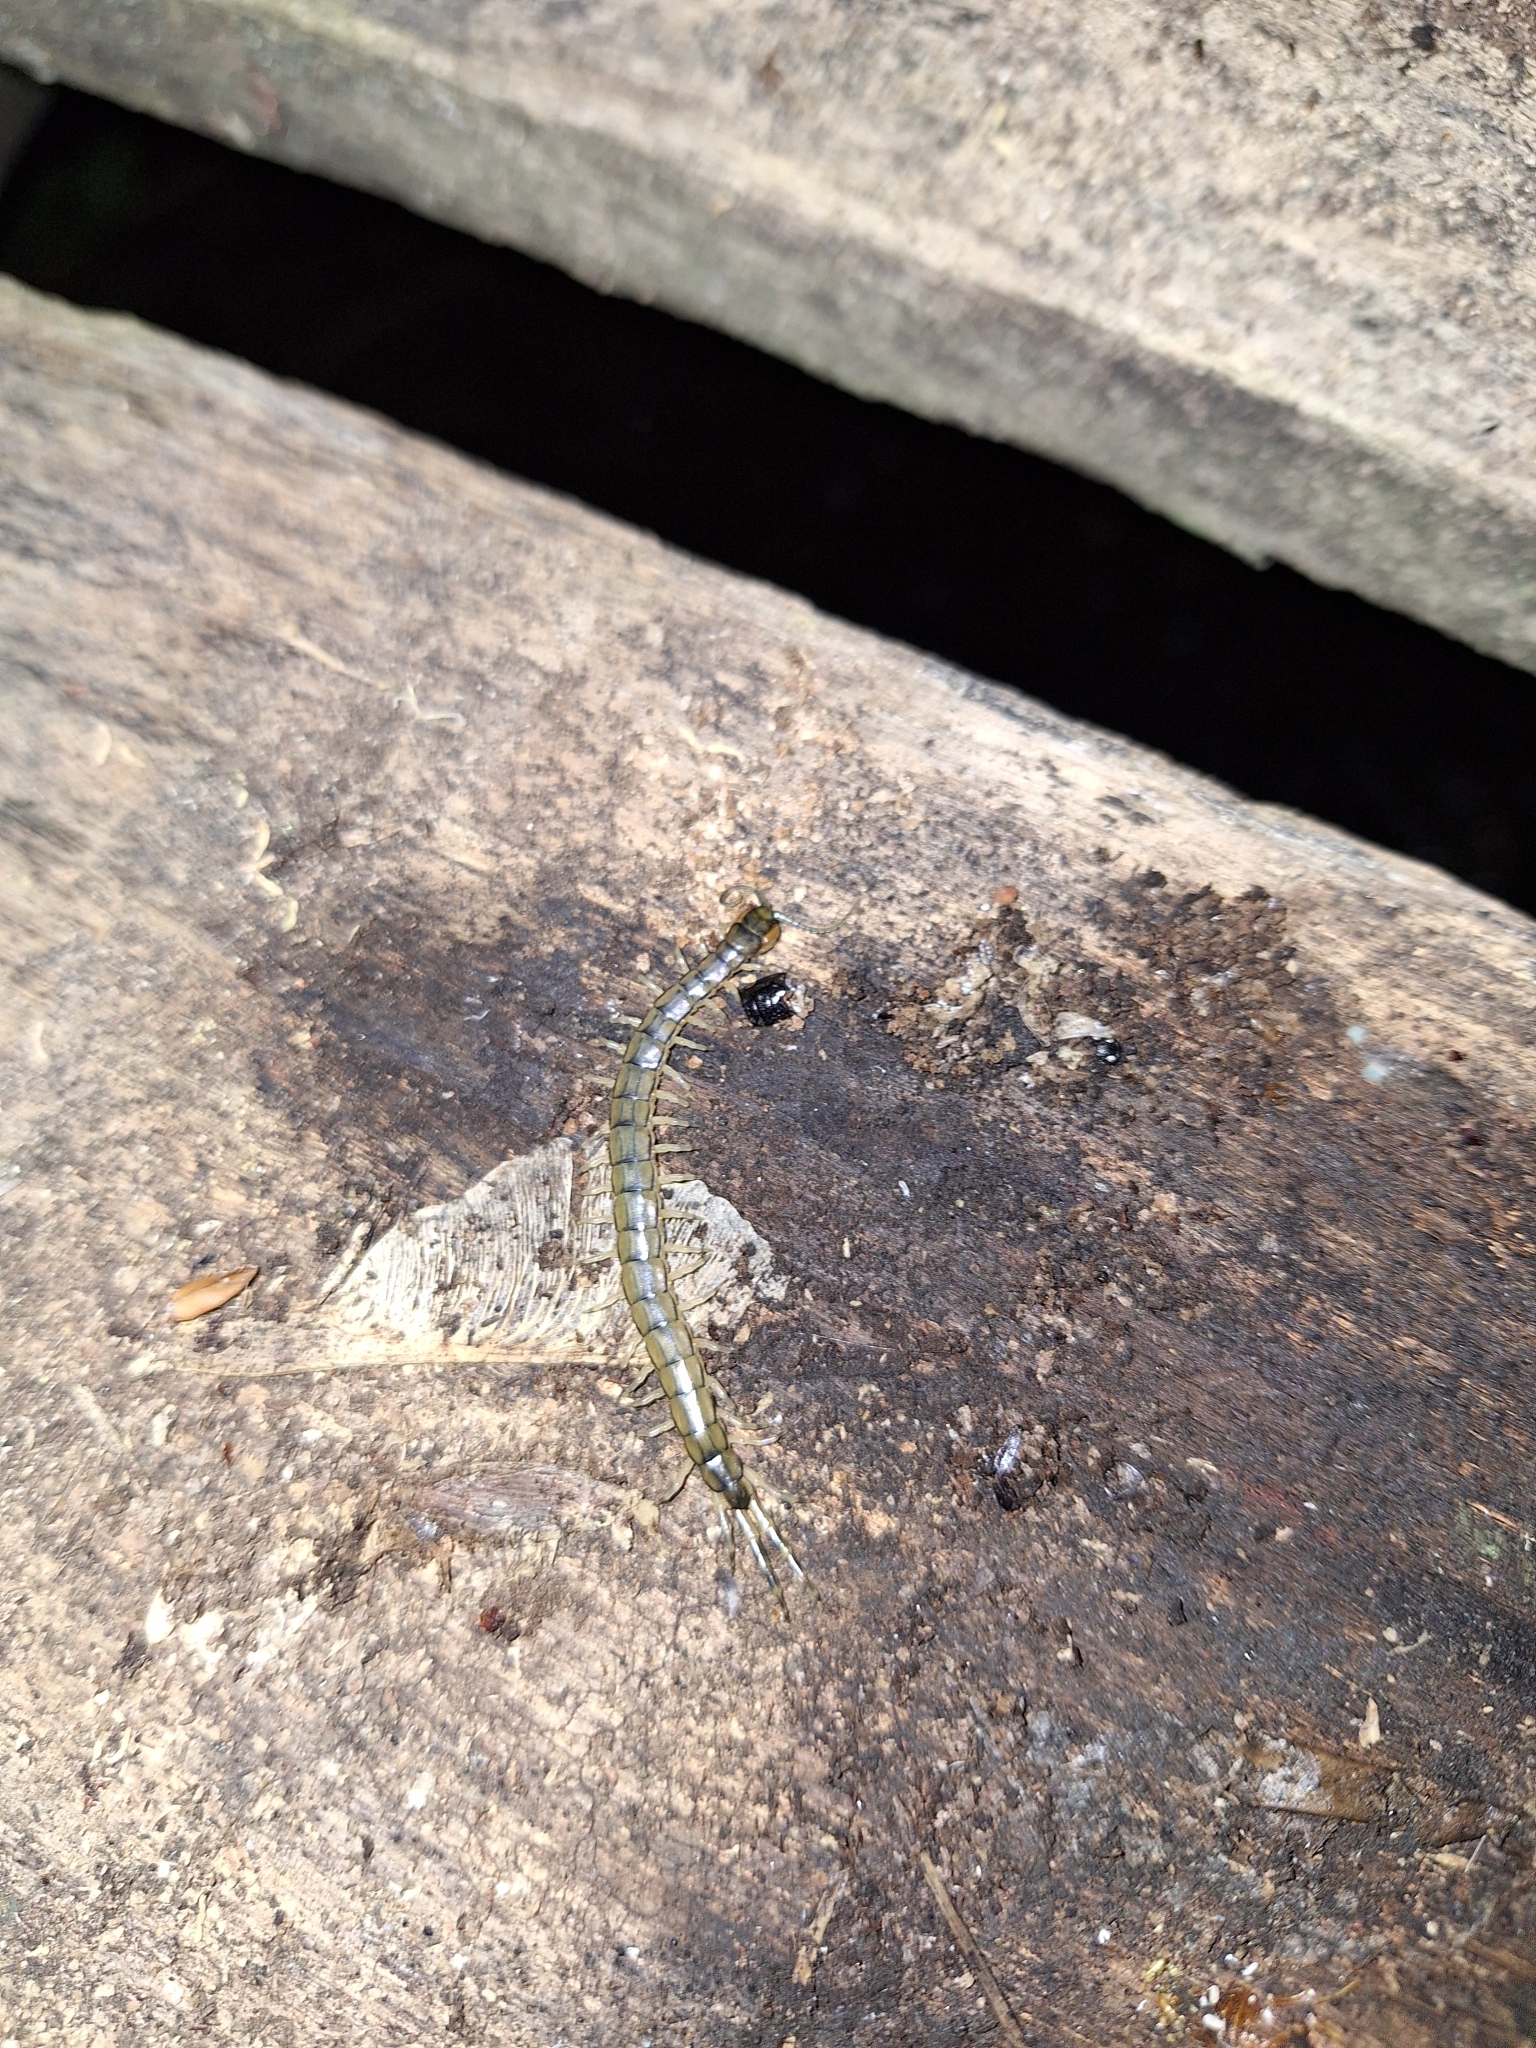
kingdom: Animalia
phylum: Arthropoda
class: Chilopoda
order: Scolopendromorpha
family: Scolopendridae
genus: Hemiscolopendra
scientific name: Hemiscolopendra laevigata
